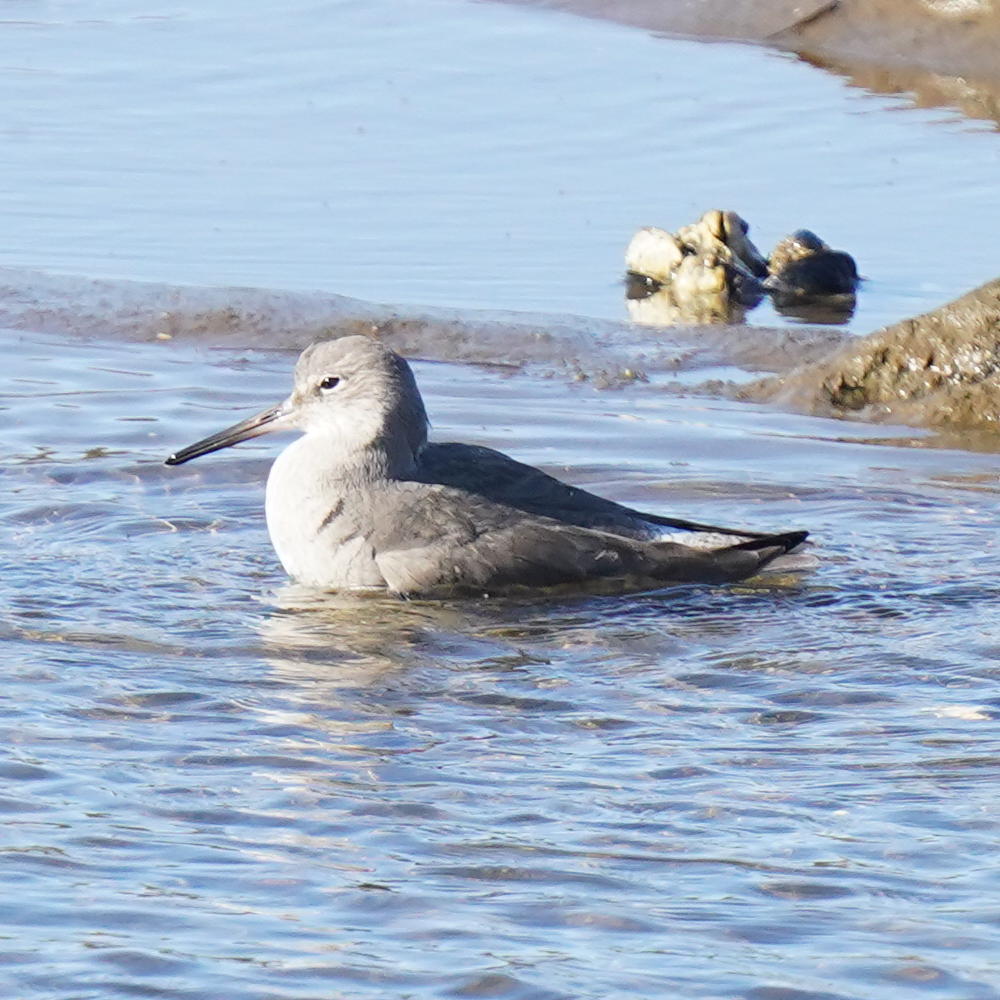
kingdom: Animalia
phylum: Chordata
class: Aves
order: Charadriiformes
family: Scolopacidae
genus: Tringa
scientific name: Tringa semipalmata
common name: Willet
